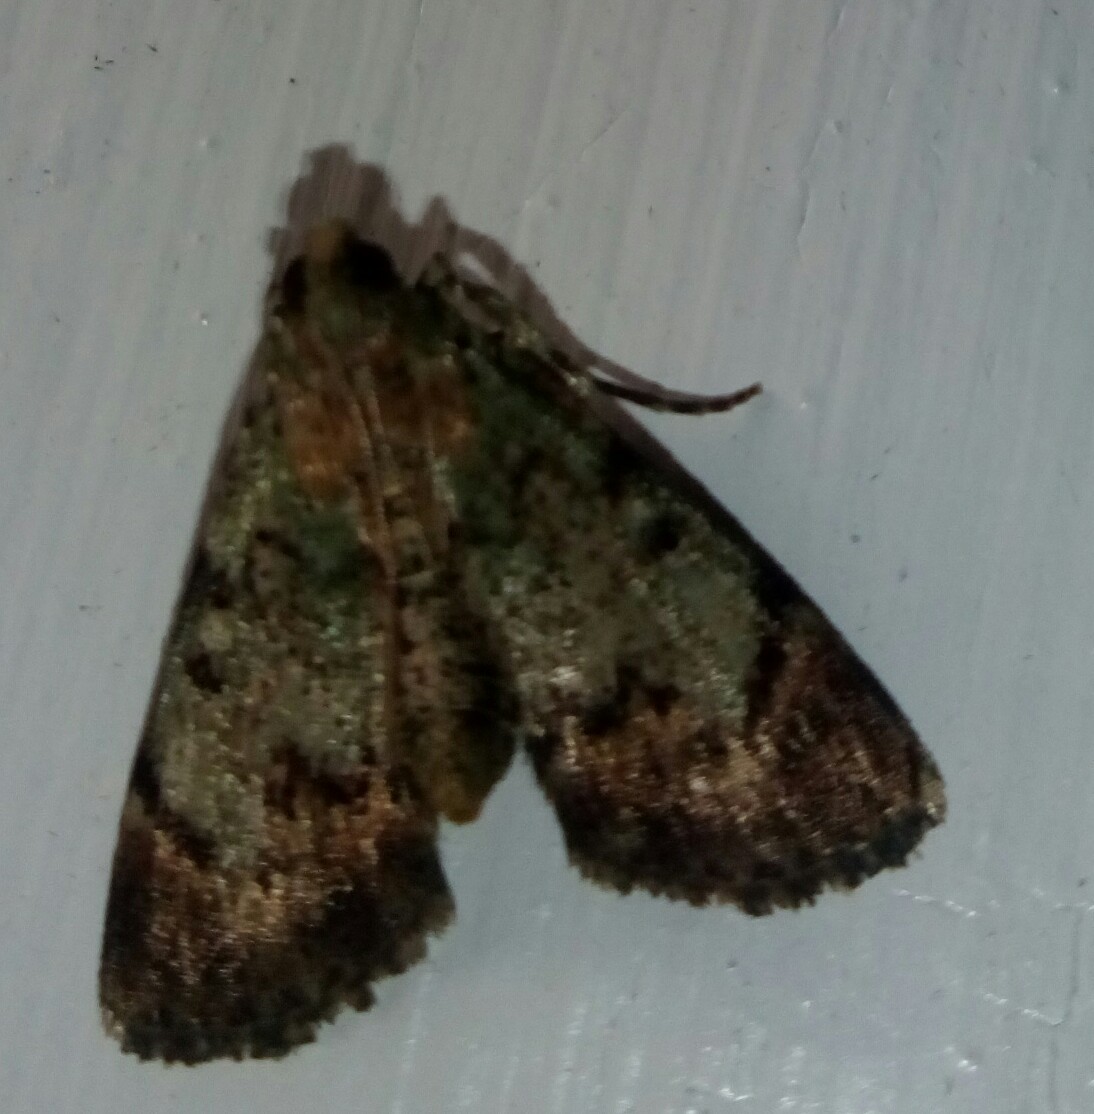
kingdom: Animalia
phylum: Arthropoda
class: Insecta
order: Lepidoptera
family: Pyralidae
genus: Epipaschia
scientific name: Epipaschia superatalis
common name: Dimorphic macalla moth
